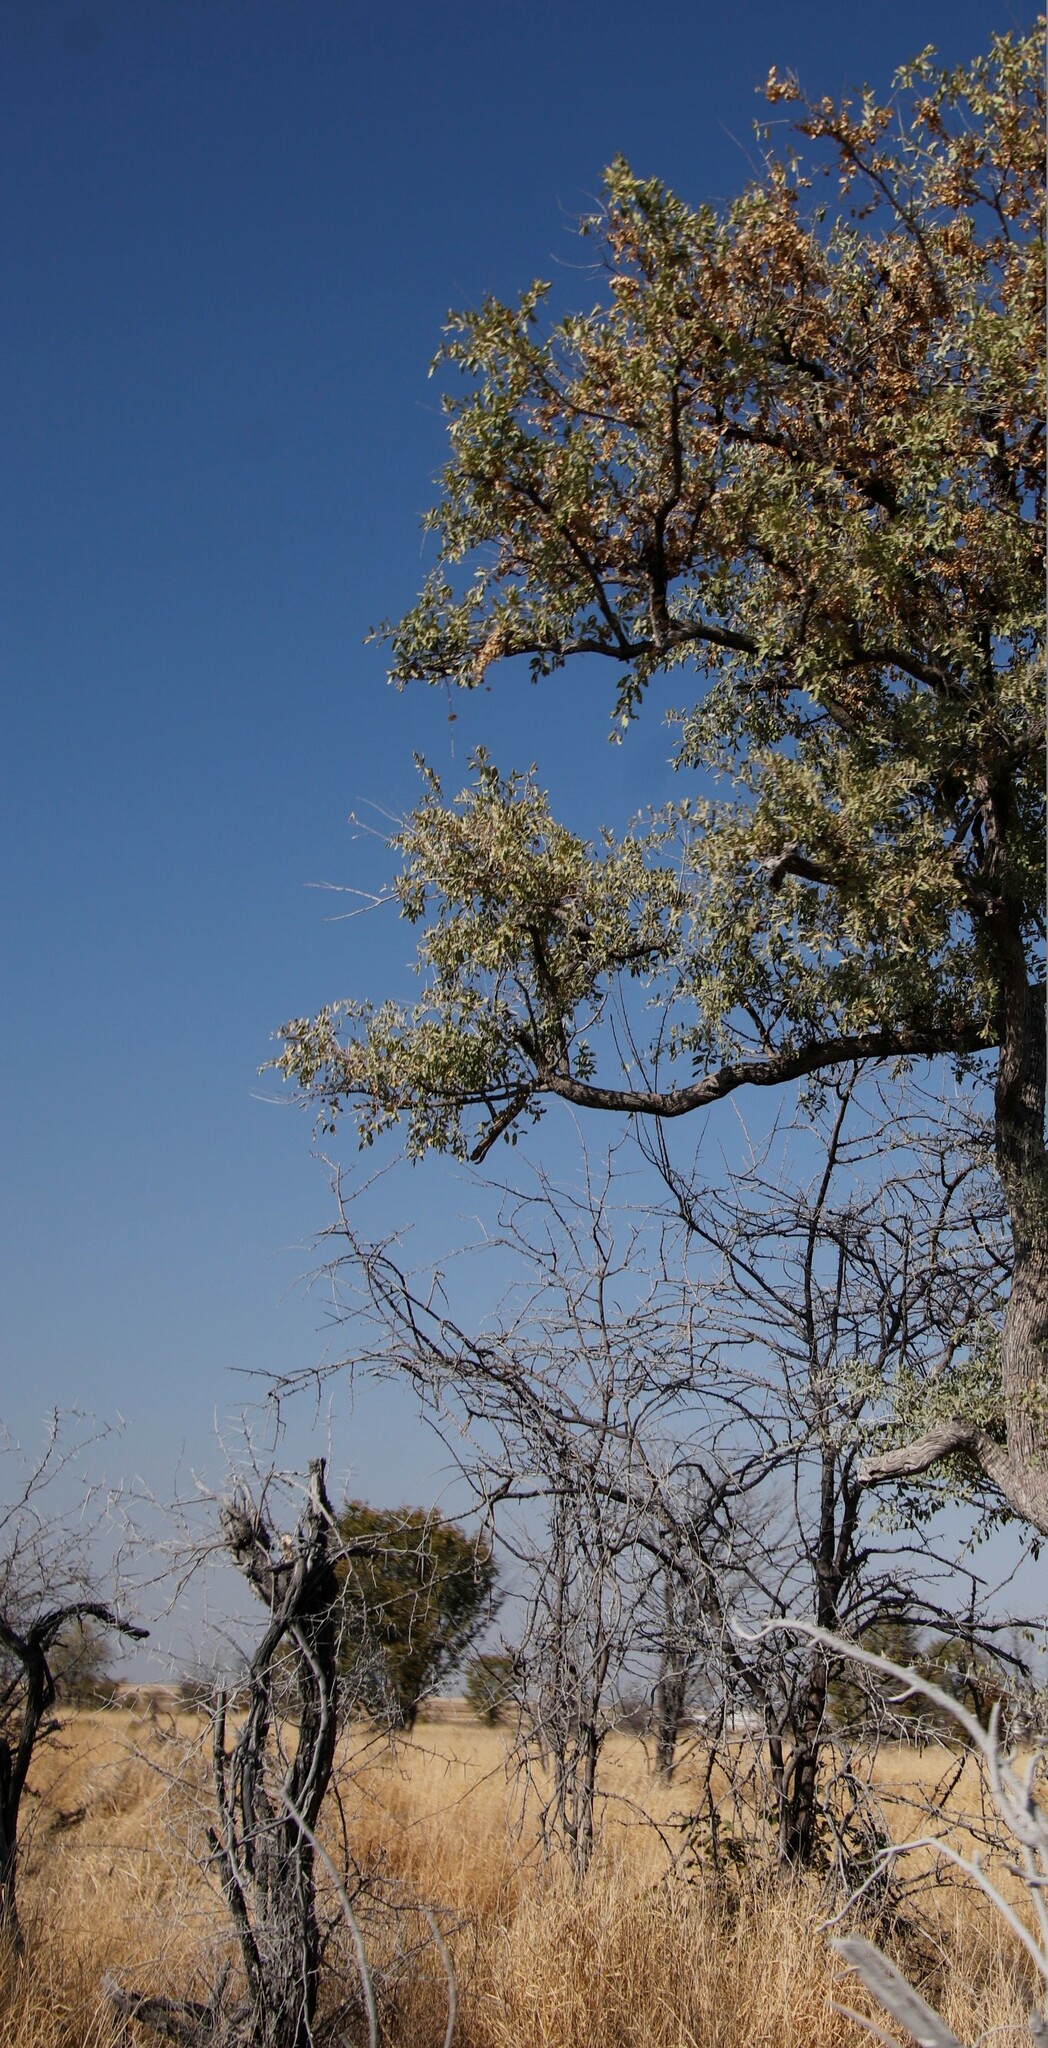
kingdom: Plantae
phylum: Tracheophyta
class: Magnoliopsida
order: Fabales
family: Fabaceae
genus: Colophospermum
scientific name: Colophospermum mopane
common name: Mopane
